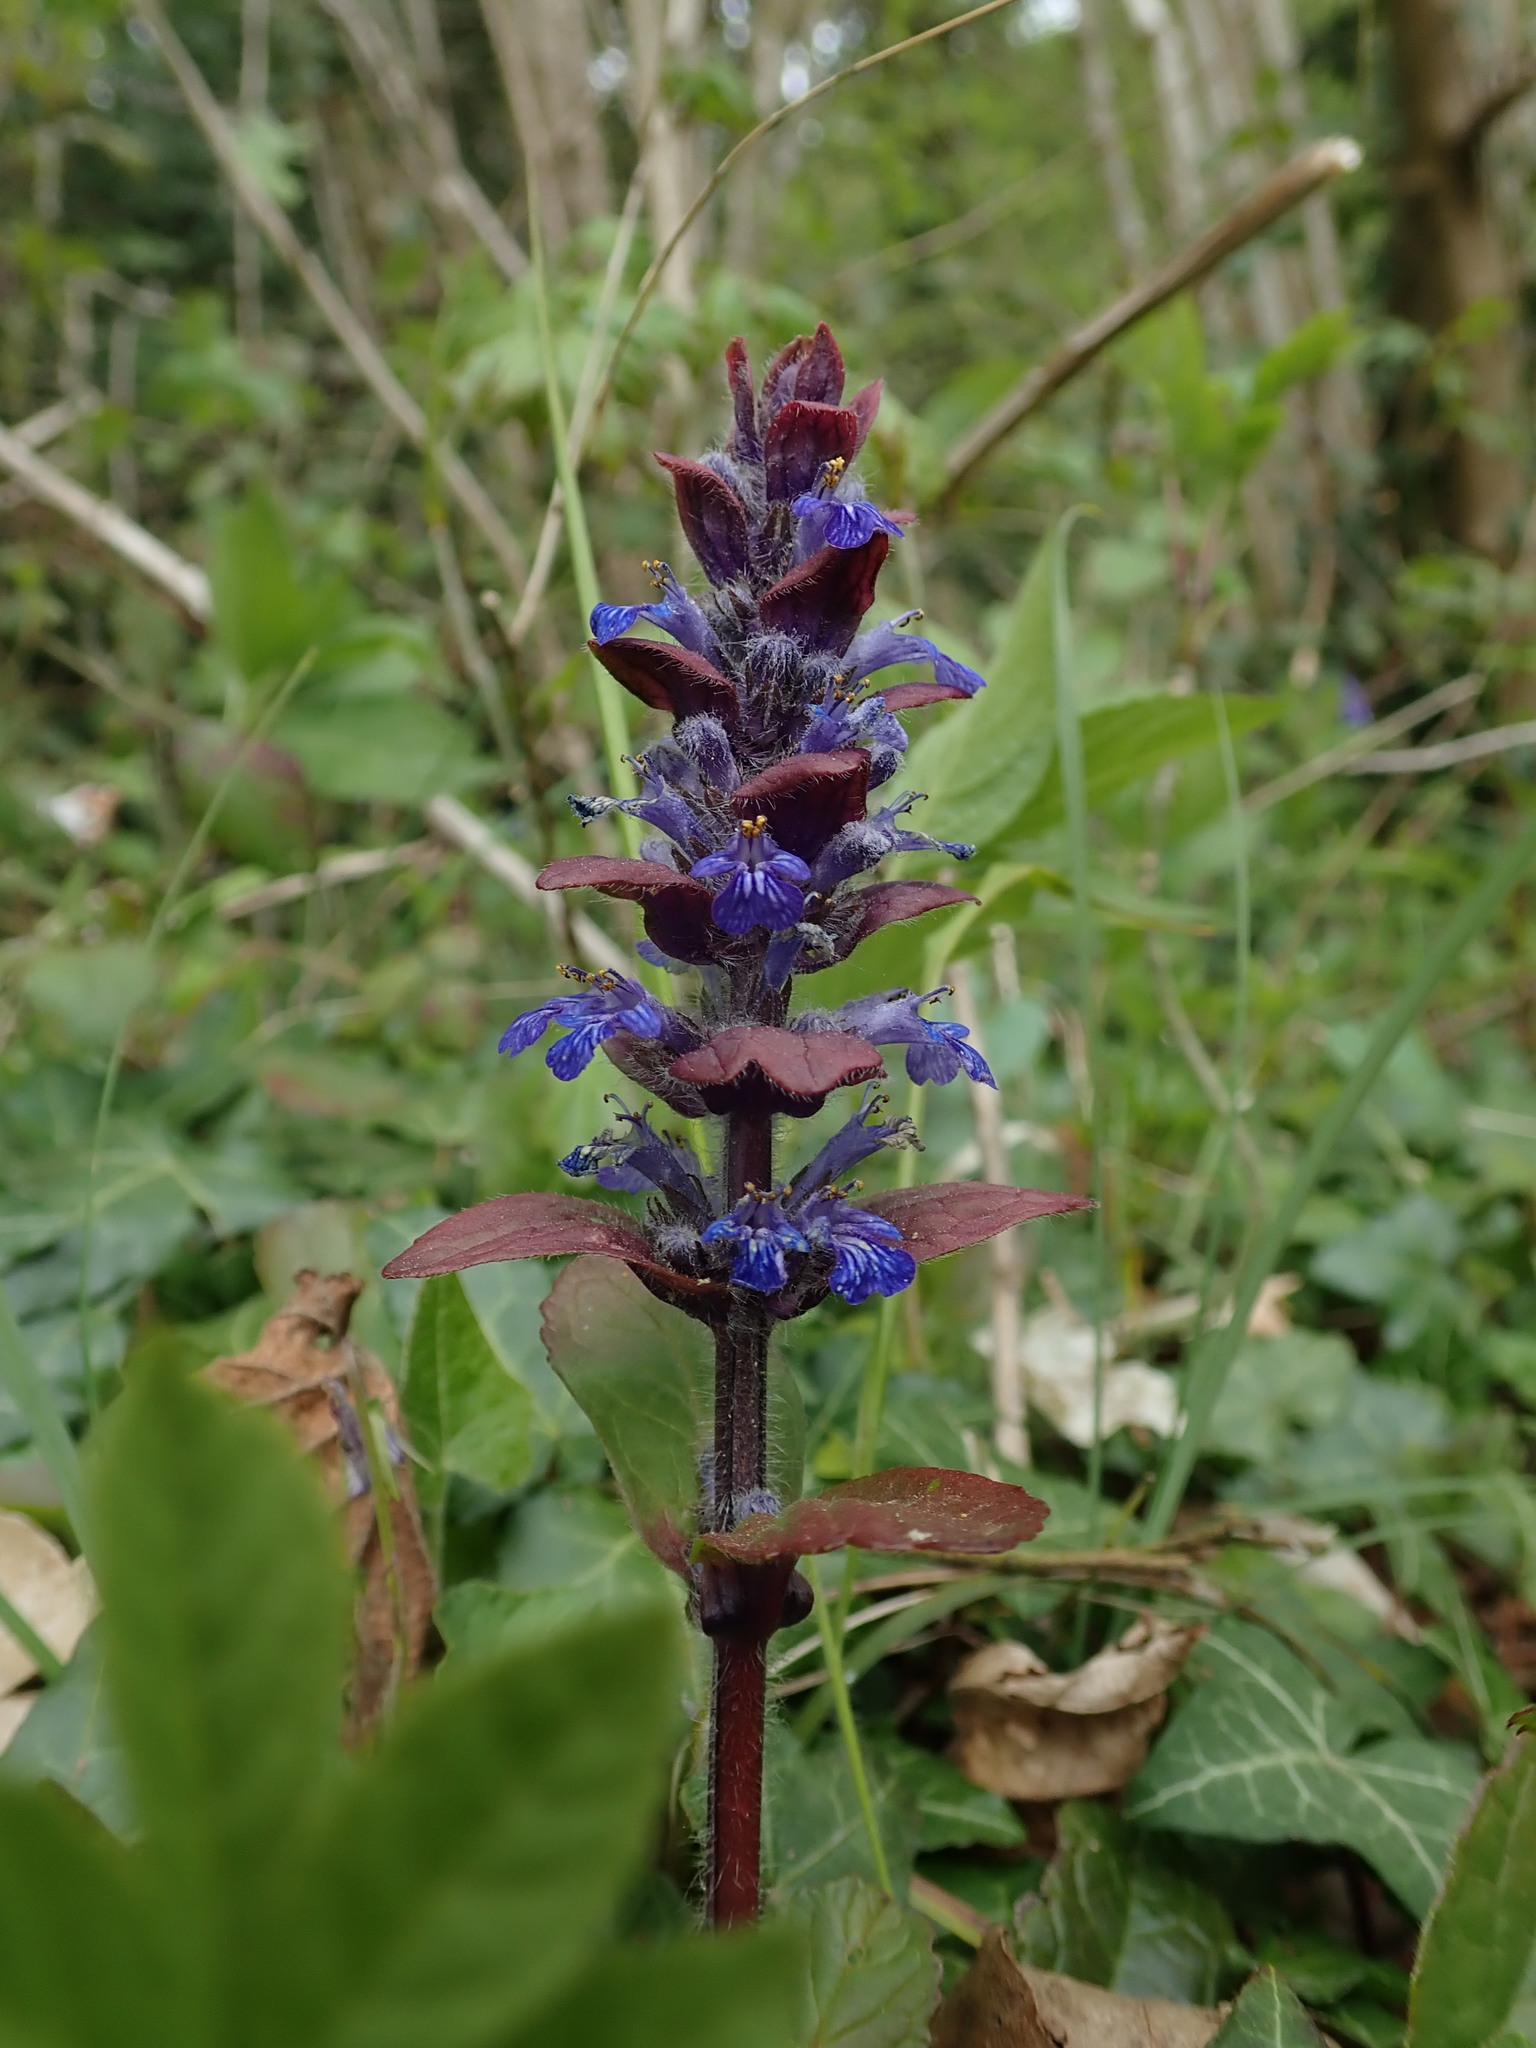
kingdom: Plantae
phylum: Tracheophyta
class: Magnoliopsida
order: Lamiales
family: Lamiaceae
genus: Ajuga
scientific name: Ajuga reptans
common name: Bugle
